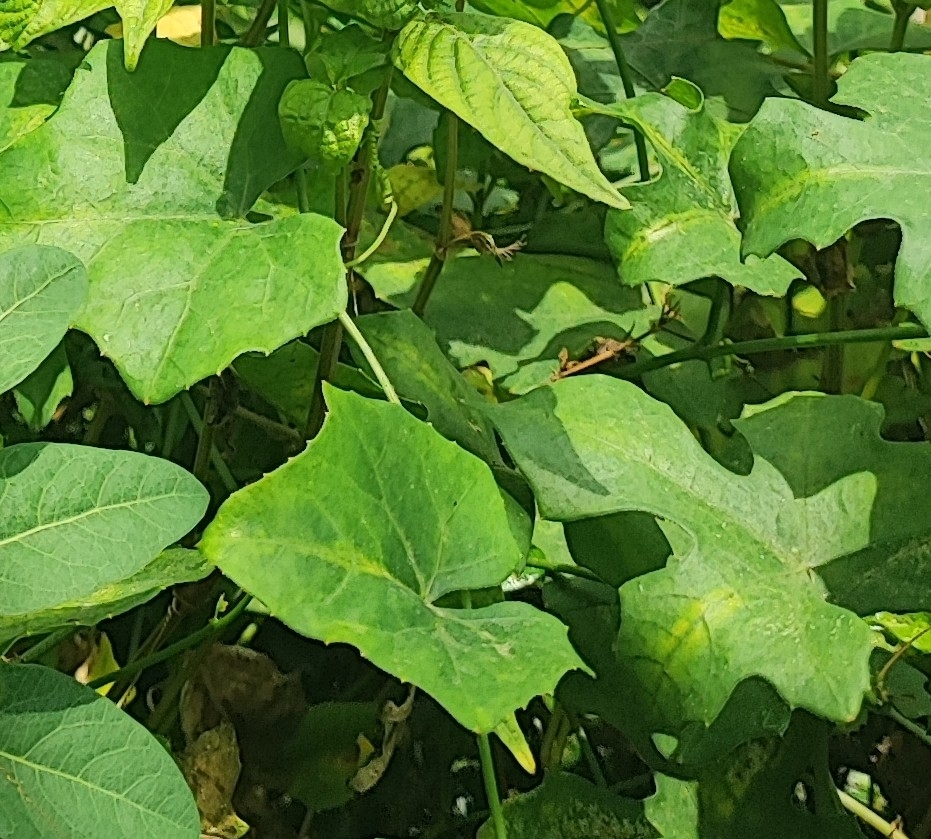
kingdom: Plantae
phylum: Tracheophyta
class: Magnoliopsida
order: Cucurbitales
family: Cucurbitaceae
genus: Coccinia
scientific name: Coccinia grandis
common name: Ivy gourd
